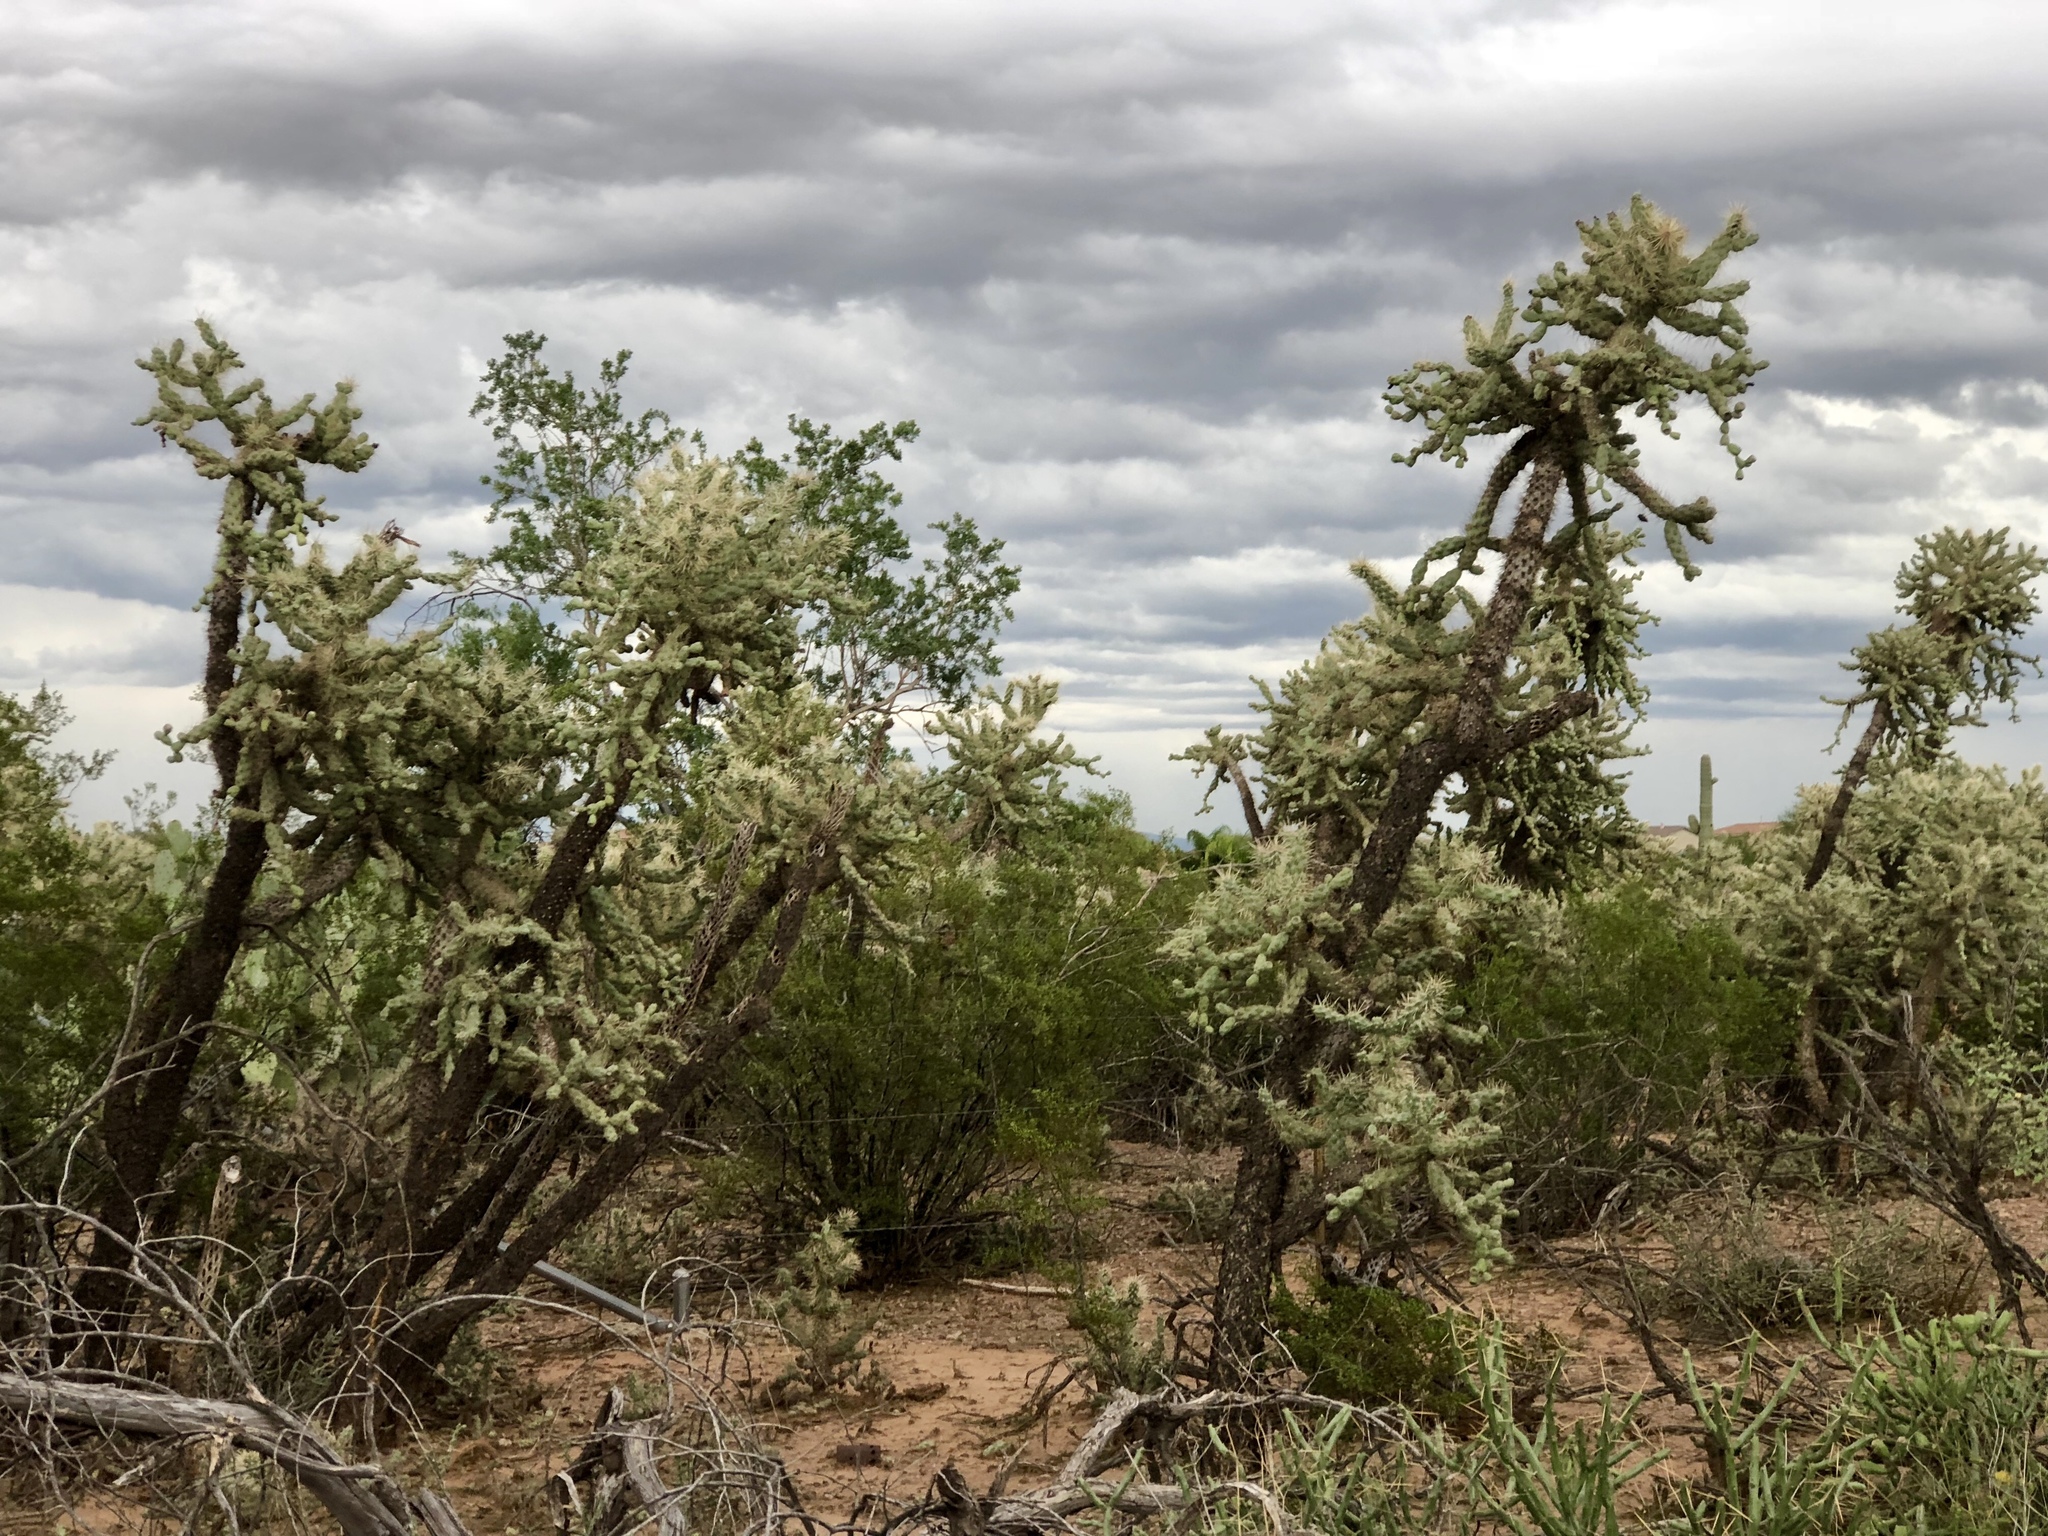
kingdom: Plantae
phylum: Tracheophyta
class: Magnoliopsida
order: Caryophyllales
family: Cactaceae
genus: Cylindropuntia
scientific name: Cylindropuntia fulgida
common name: Jumping cholla
